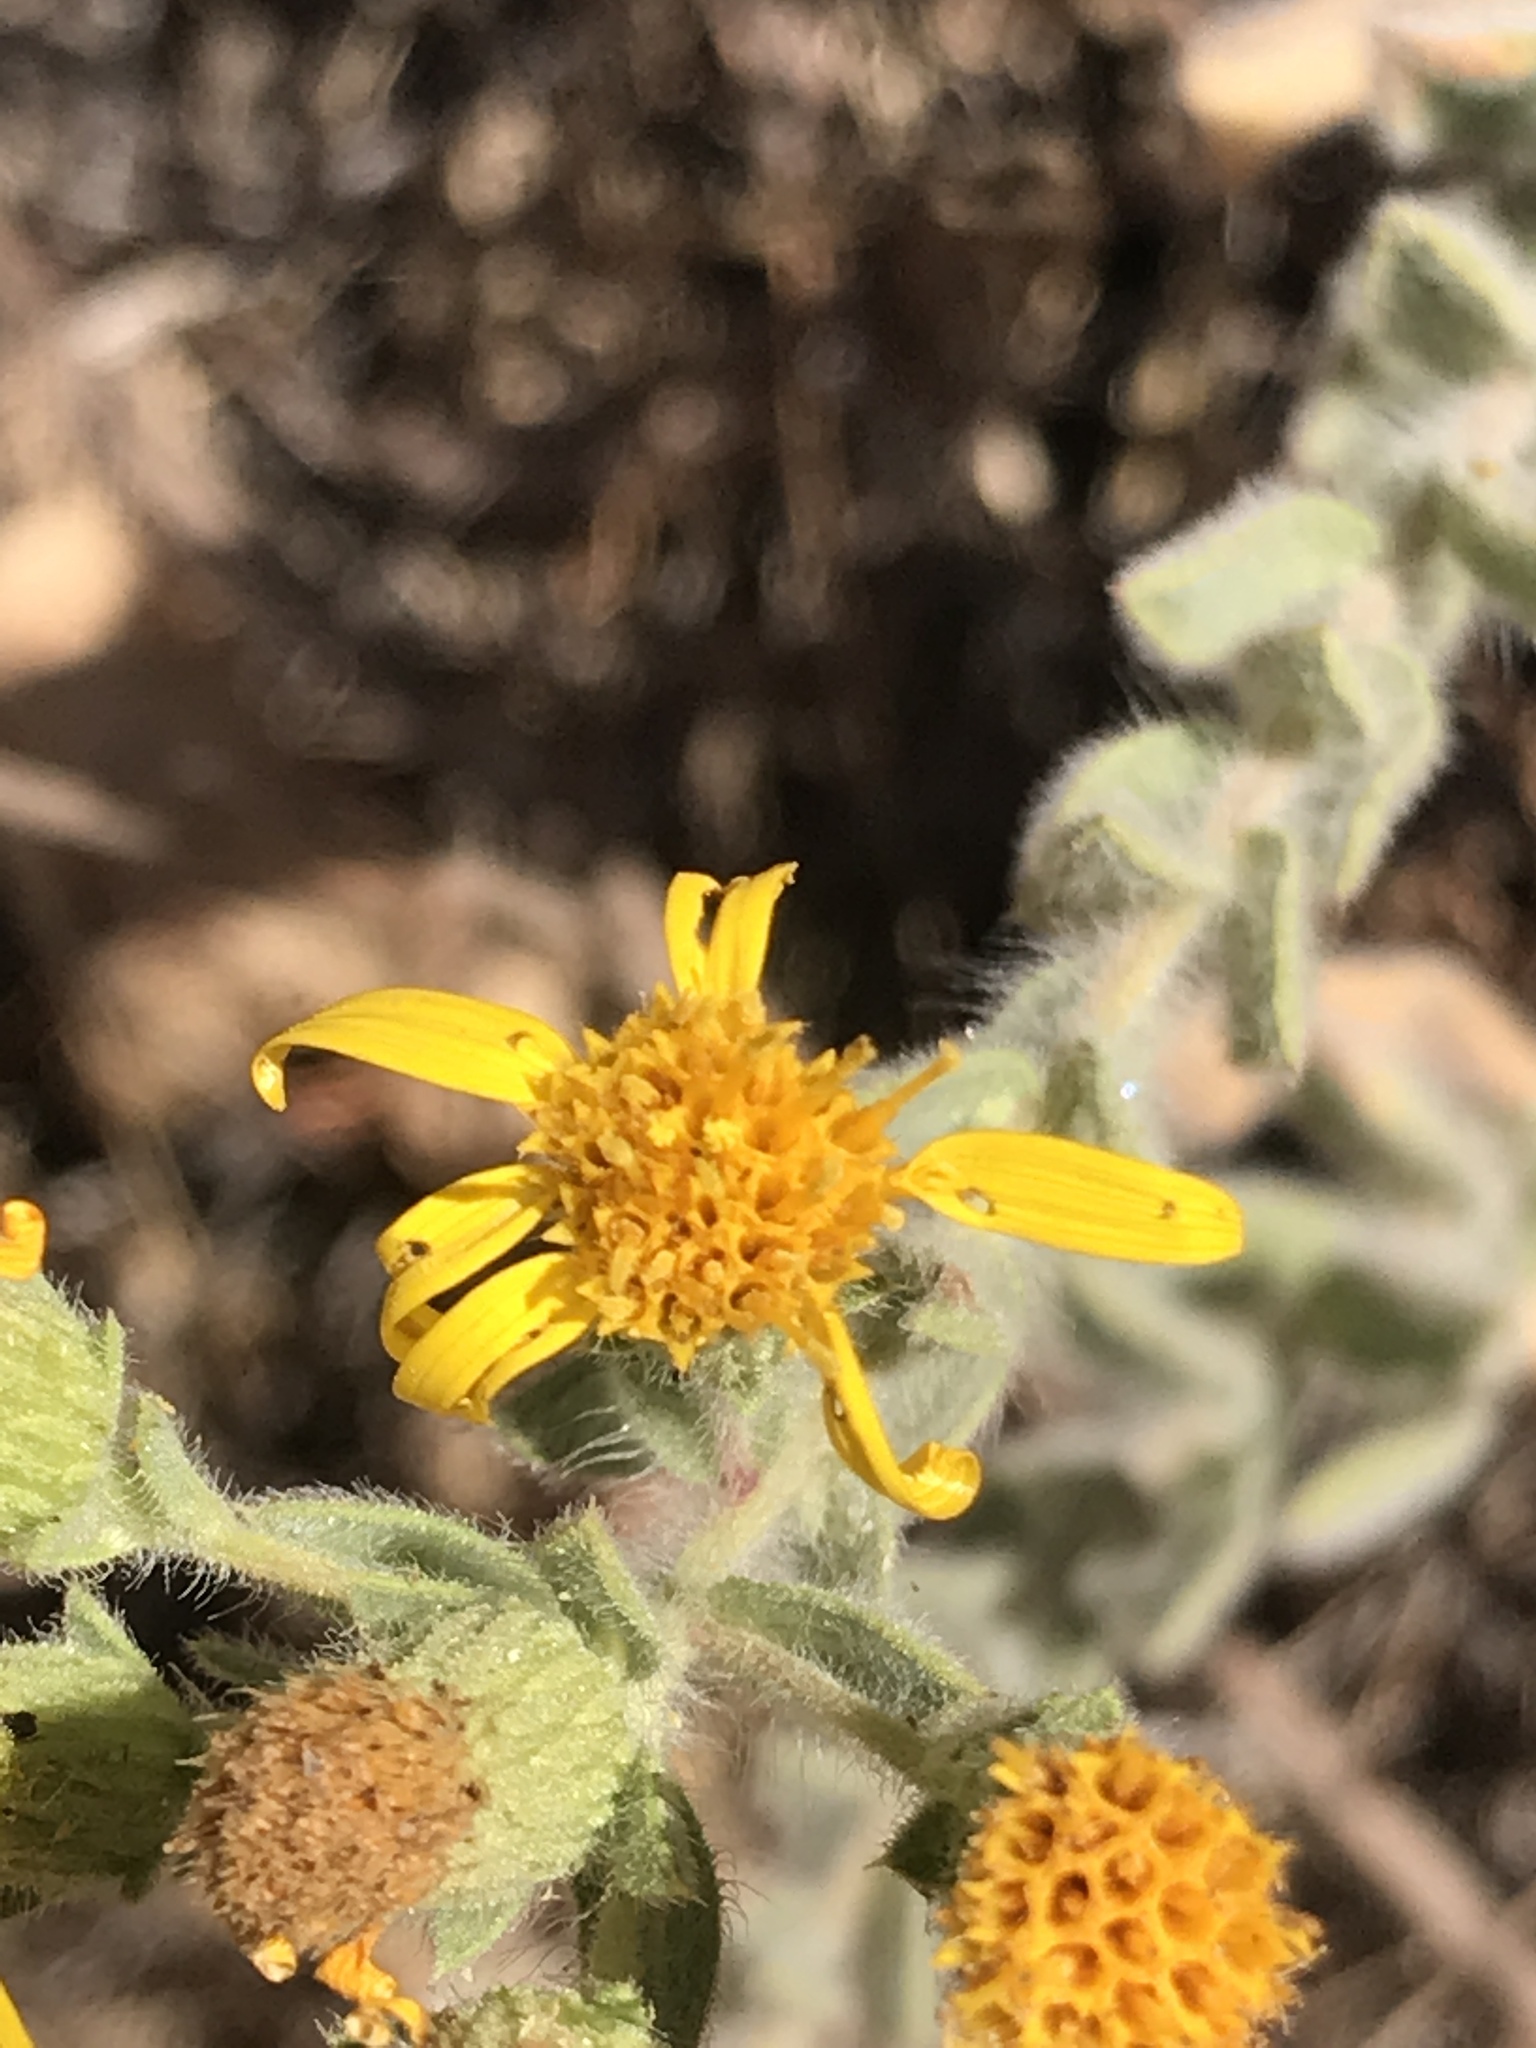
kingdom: Plantae
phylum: Tracheophyta
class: Magnoliopsida
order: Asterales
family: Asteraceae
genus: Heterotheca
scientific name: Heterotheca sessiliflora
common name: Sessile-flower golden-aster
